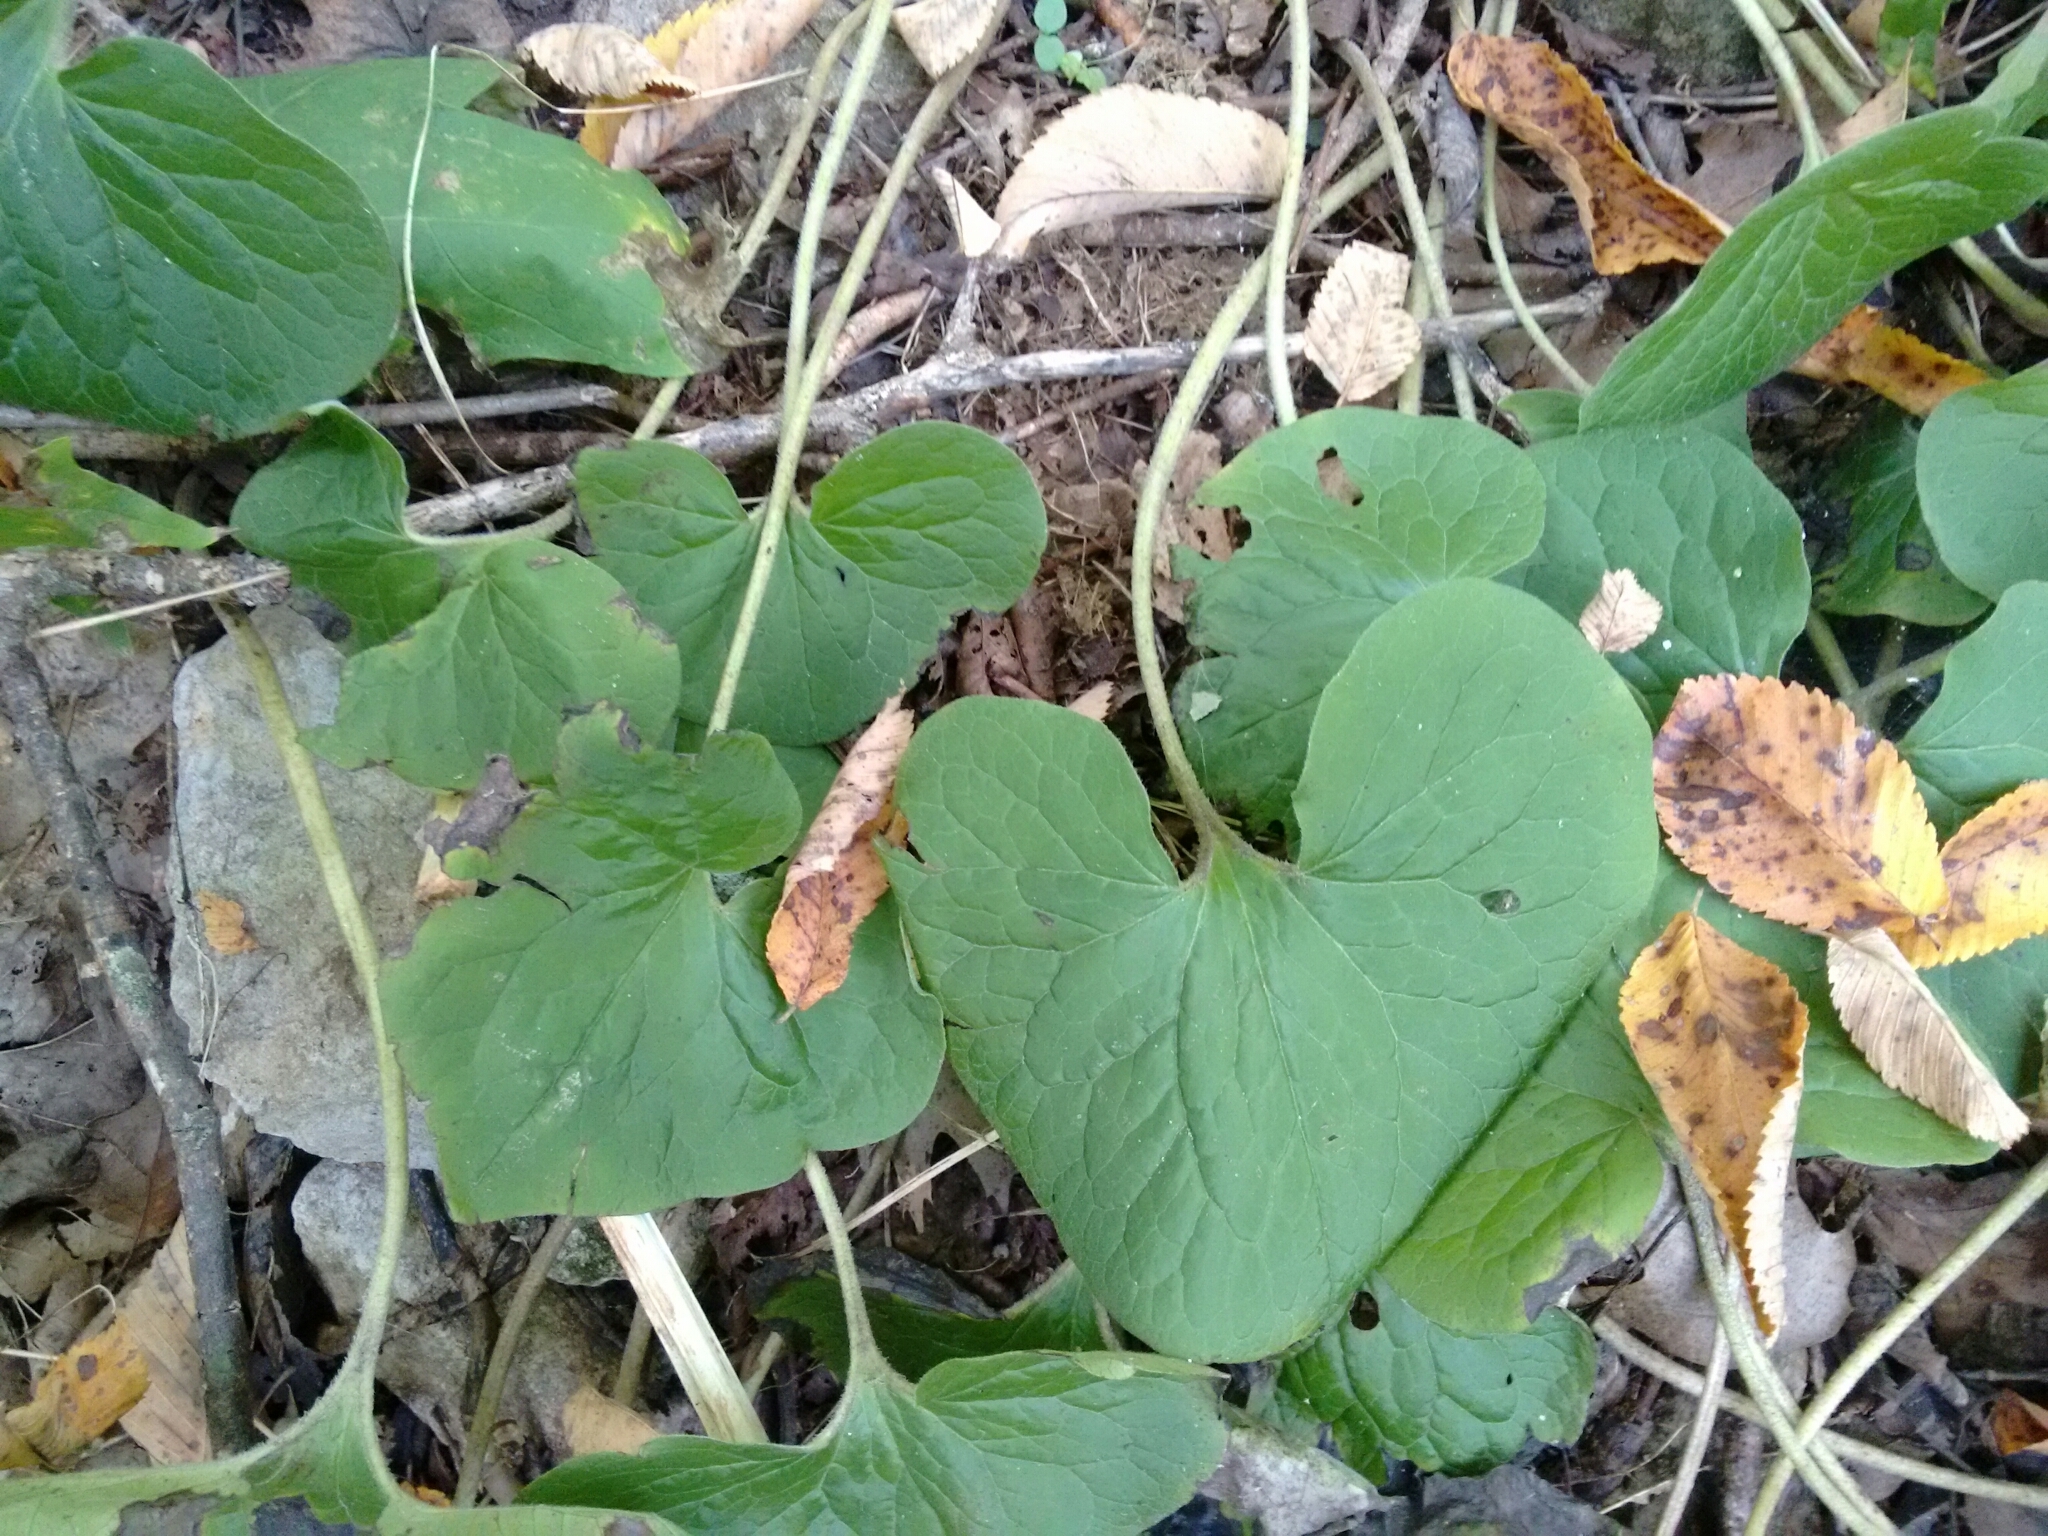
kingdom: Plantae
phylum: Tracheophyta
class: Magnoliopsida
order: Piperales
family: Aristolochiaceae
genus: Asarum
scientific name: Asarum canadense
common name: Wild ginger
